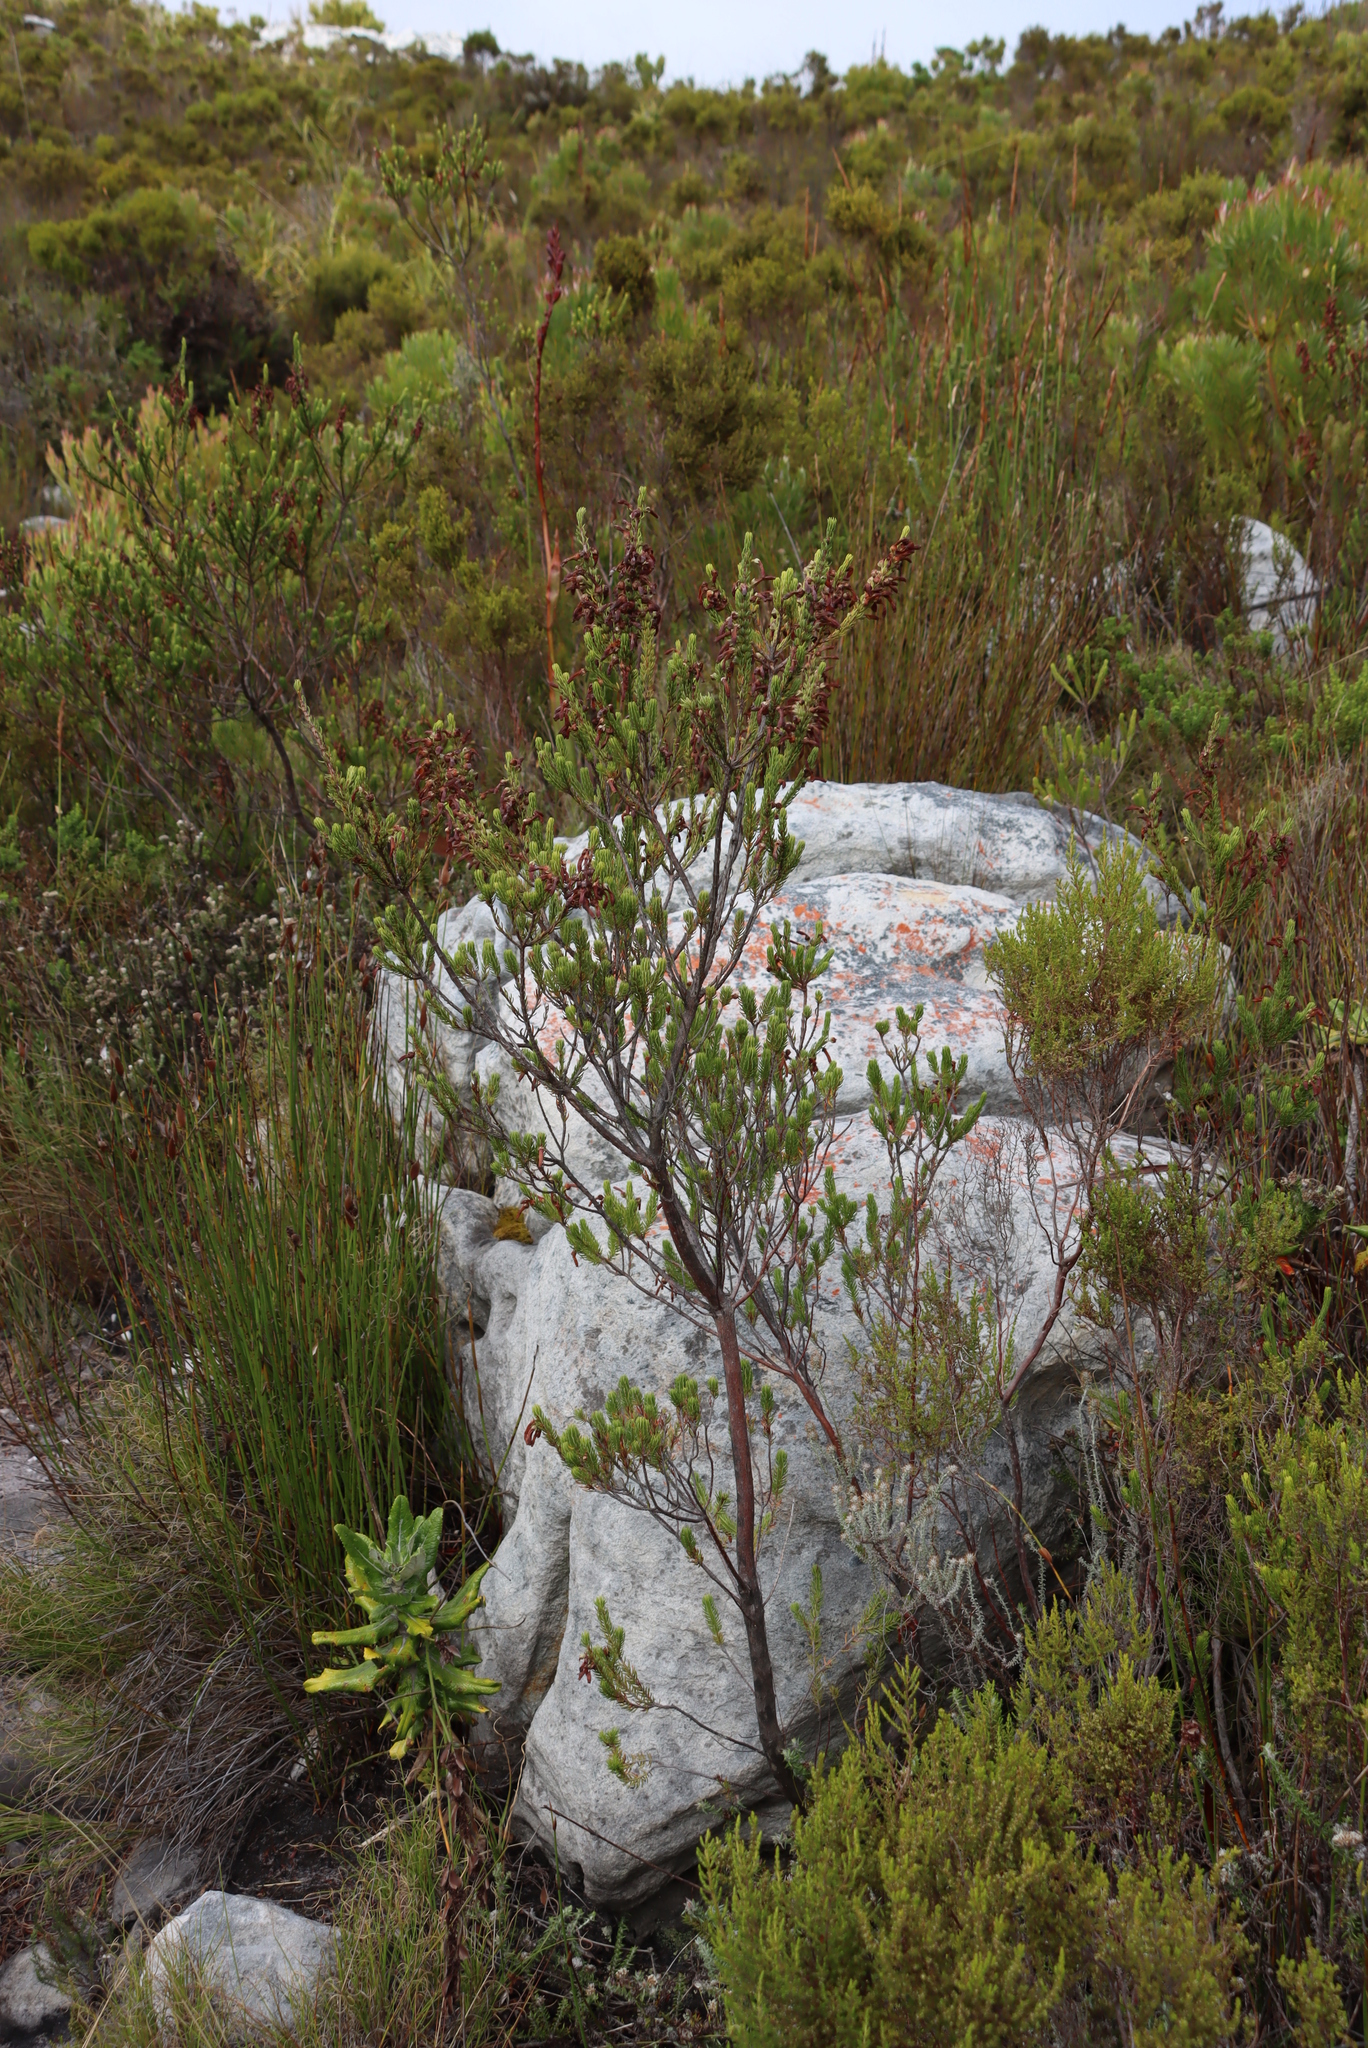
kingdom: Plantae
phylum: Tracheophyta
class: Magnoliopsida
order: Ericales
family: Ericaceae
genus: Erica
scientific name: Erica mammosa
